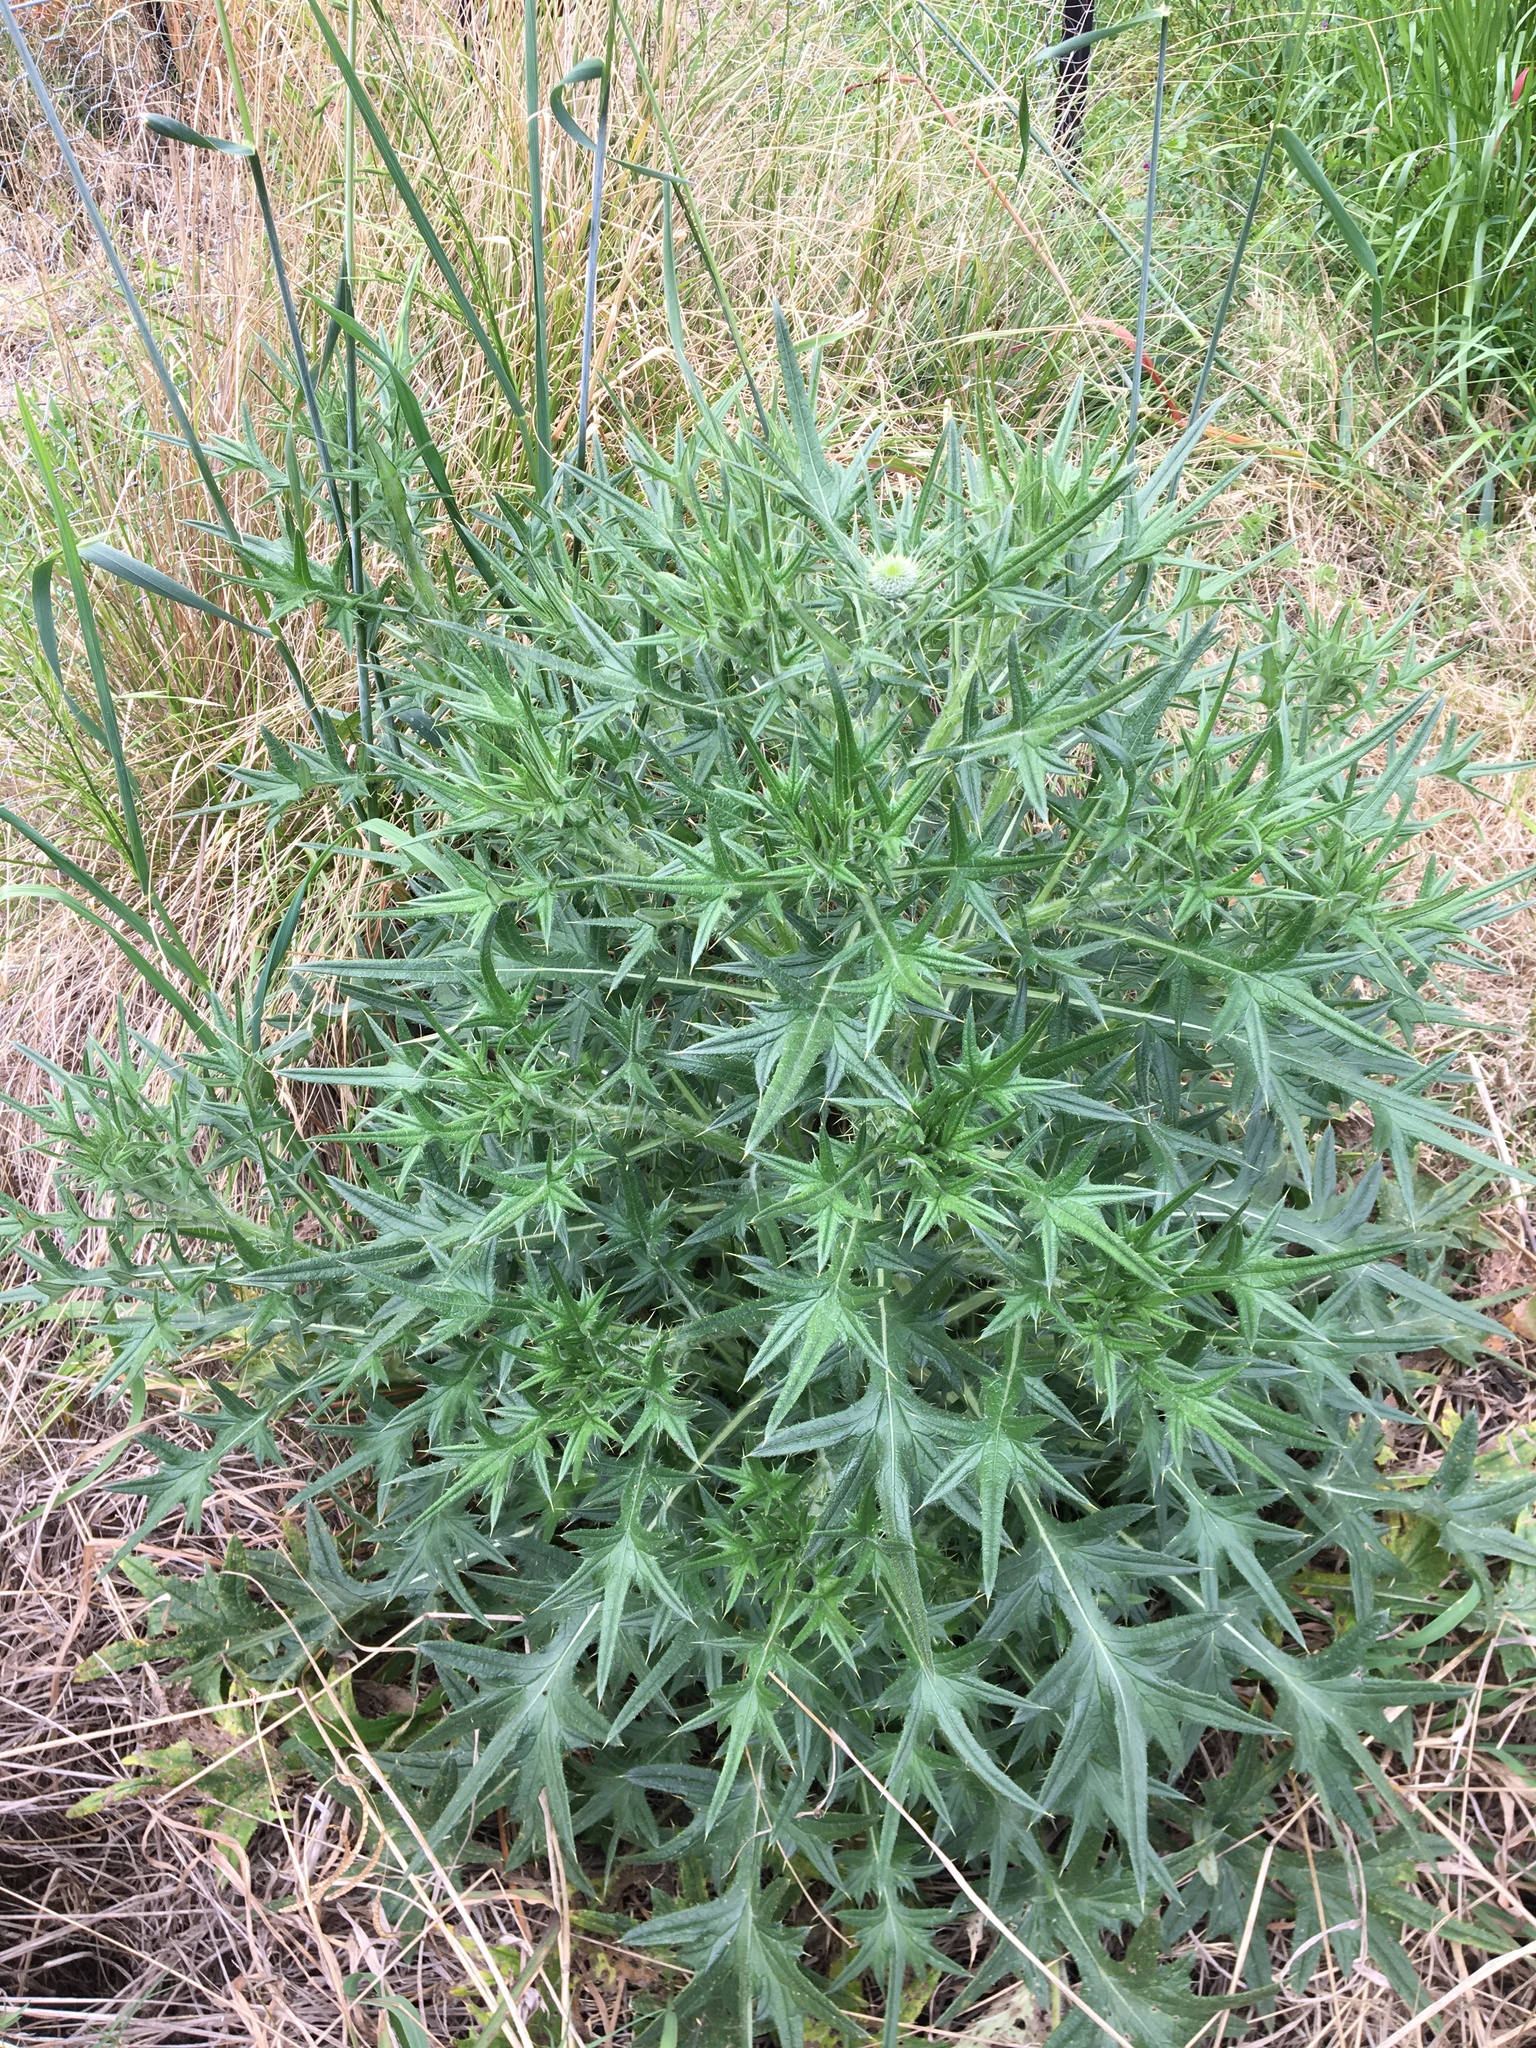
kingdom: Plantae
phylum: Tracheophyta
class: Magnoliopsida
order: Asterales
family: Asteraceae
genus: Cirsium
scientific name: Cirsium vulgare
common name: Bull thistle
